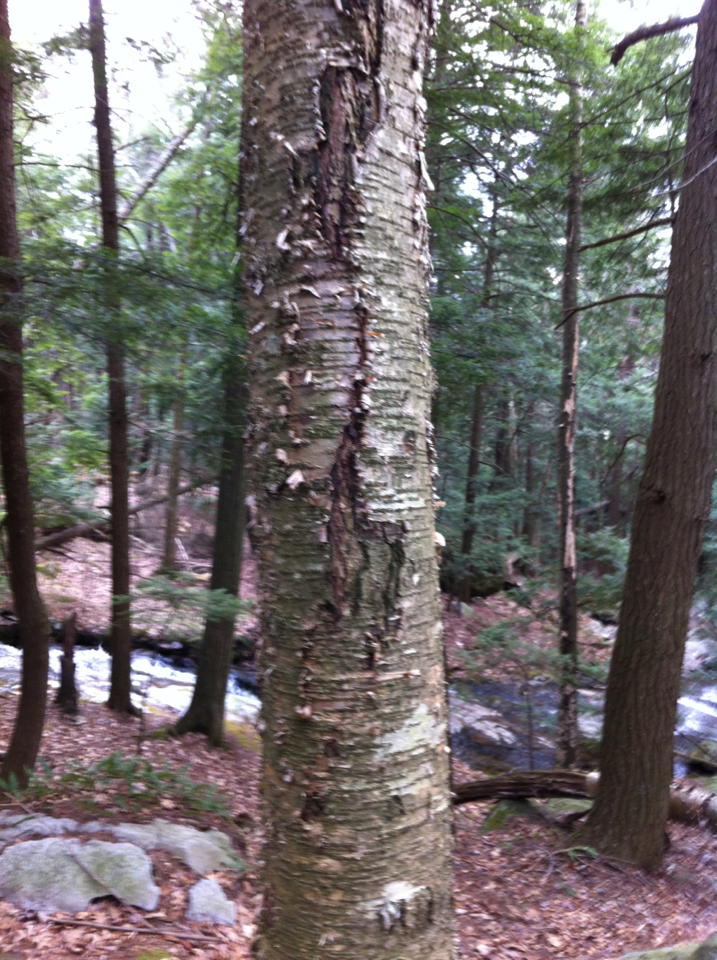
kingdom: Plantae
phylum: Tracheophyta
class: Magnoliopsida
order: Fagales
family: Betulaceae
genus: Betula
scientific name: Betula alleghaniensis
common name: Yellow birch
